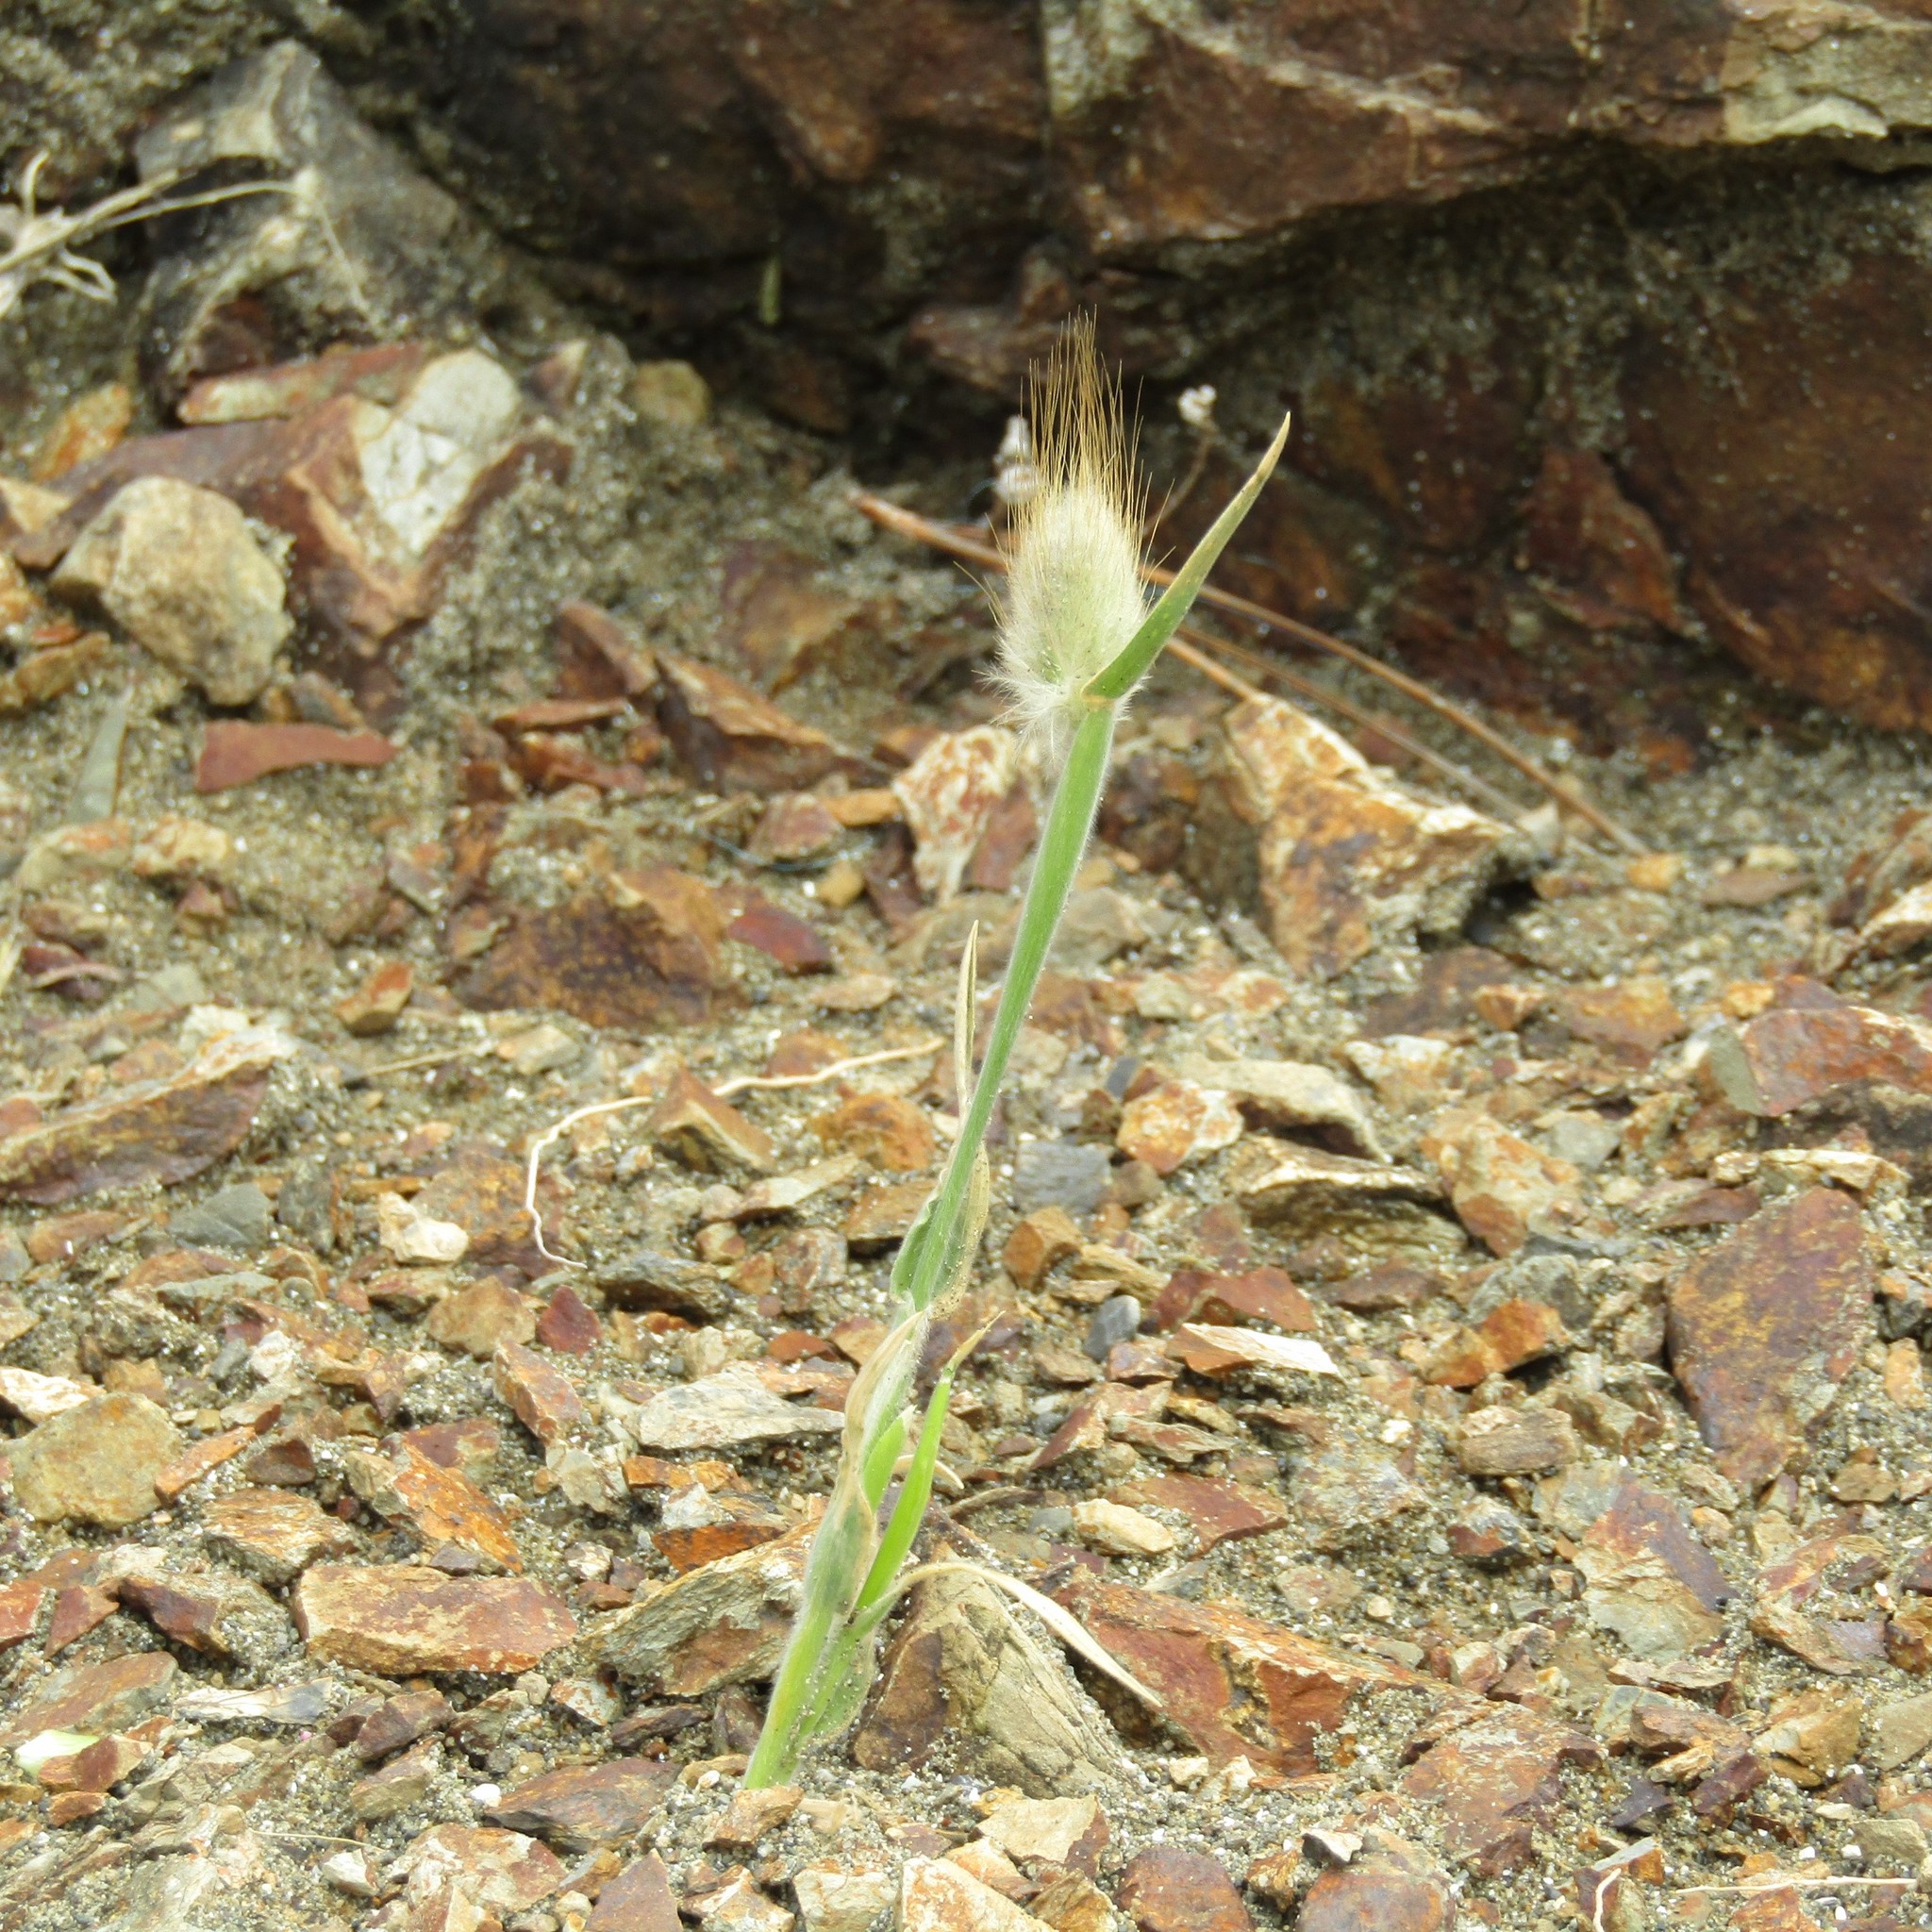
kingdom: Plantae
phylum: Tracheophyta
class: Liliopsida
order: Poales
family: Poaceae
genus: Lagurus
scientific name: Lagurus ovatus
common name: Hare's-tail
